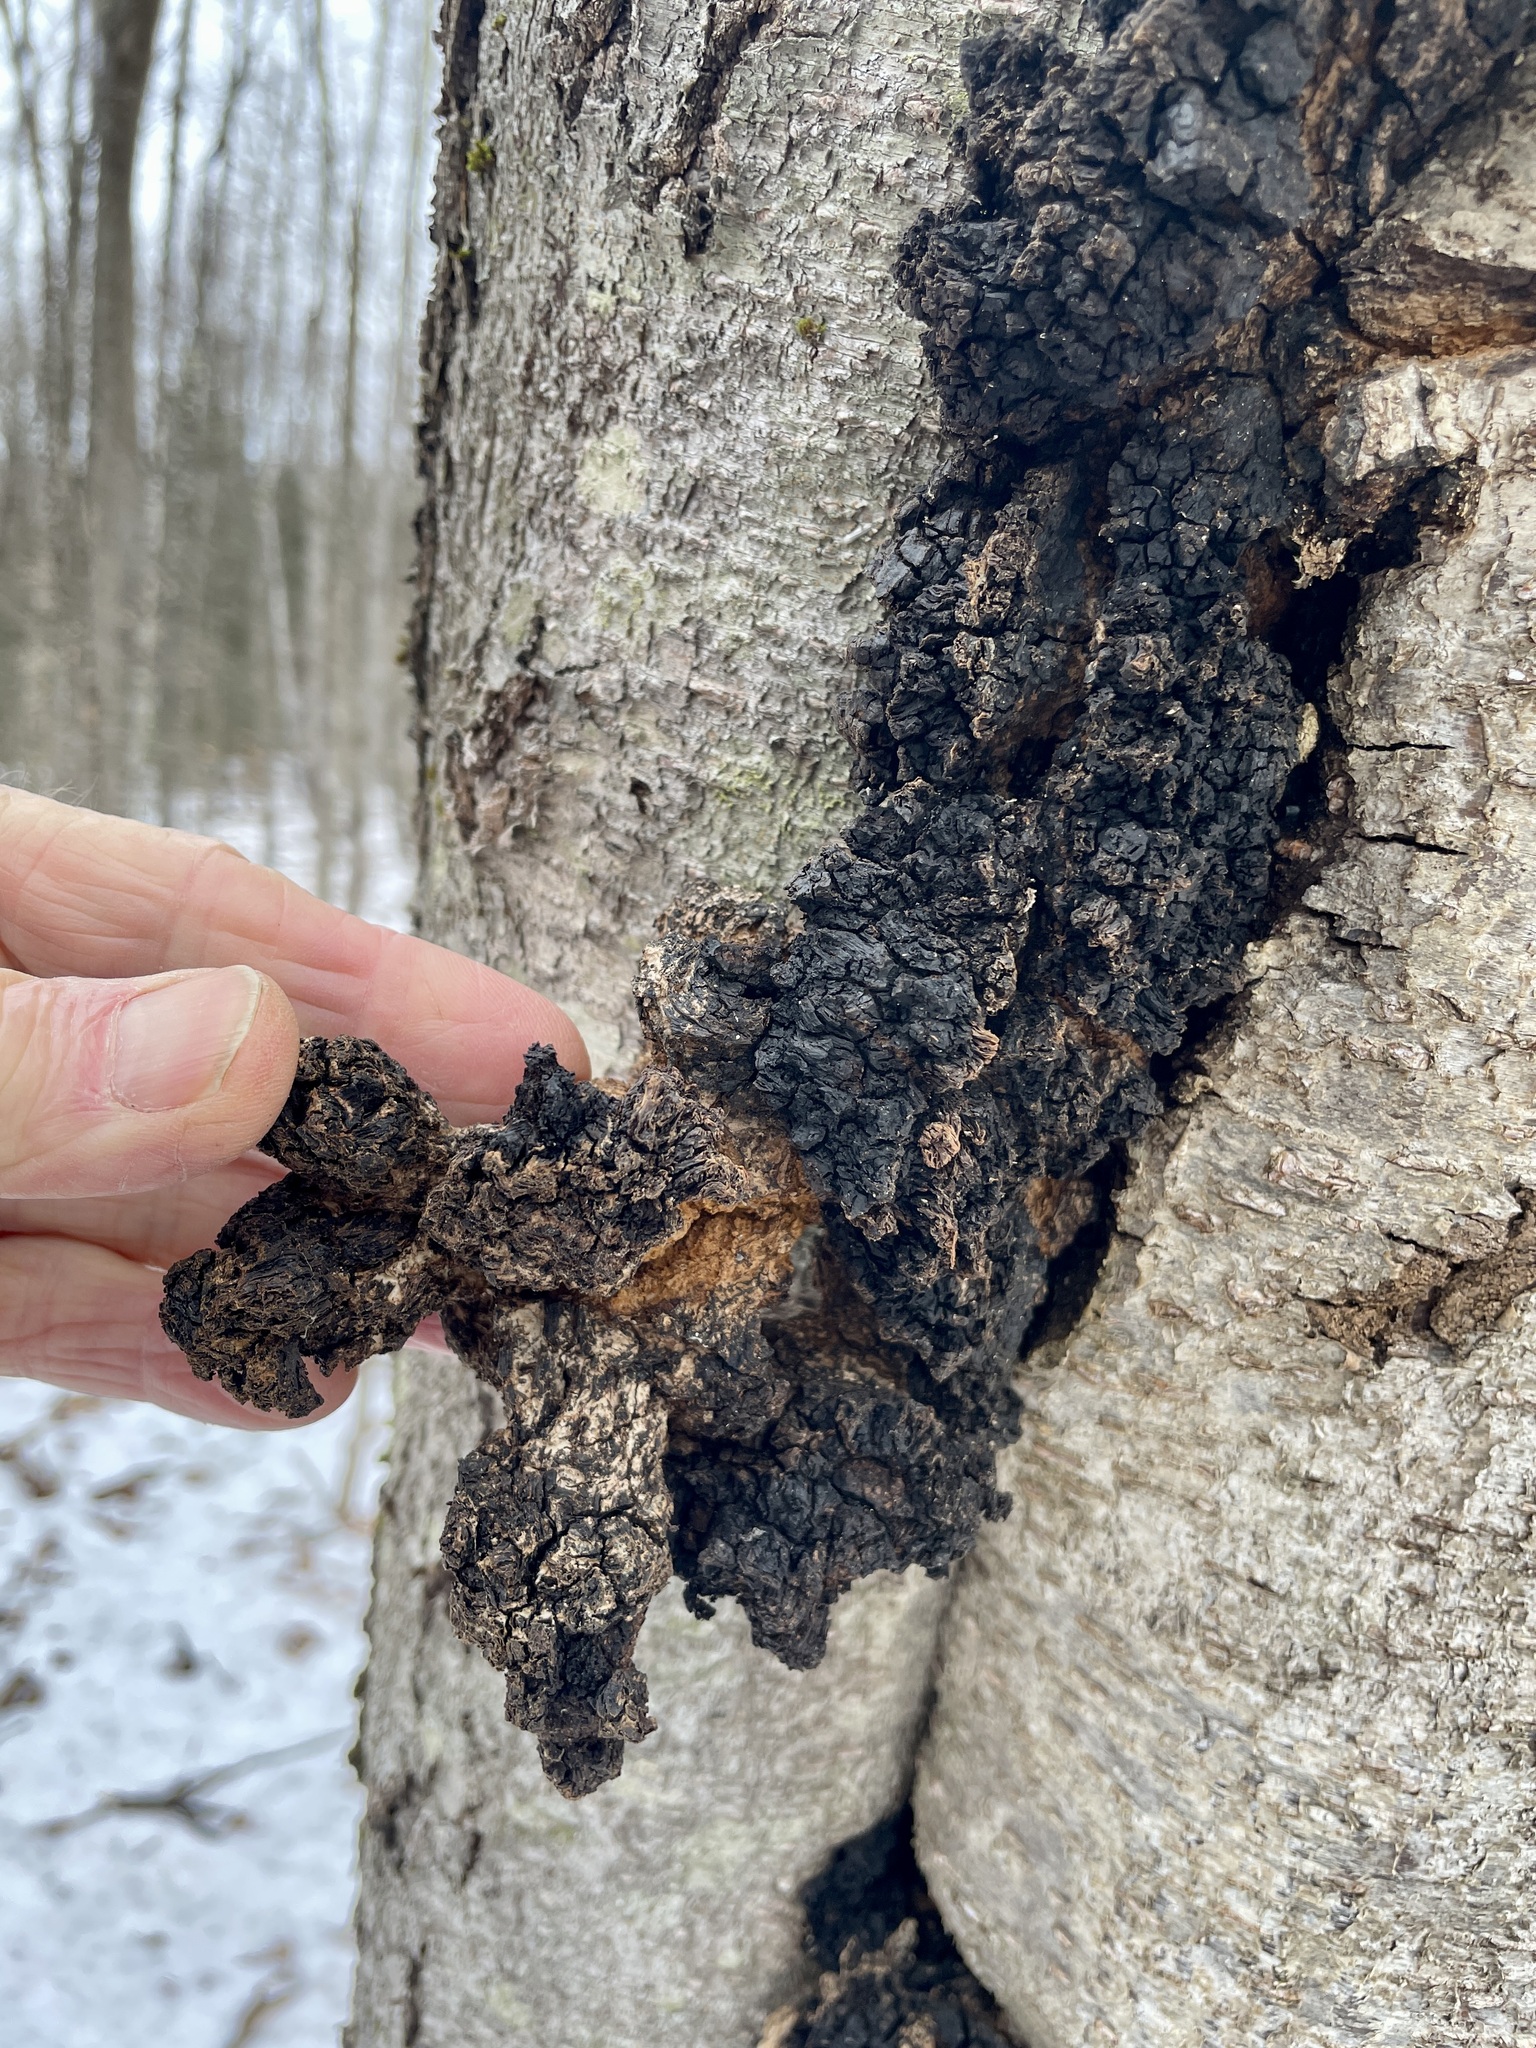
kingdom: Fungi
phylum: Basidiomycota
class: Agaricomycetes
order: Hymenochaetales
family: Hymenochaetaceae
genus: Inonotus
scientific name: Inonotus obliquus
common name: Chaga
